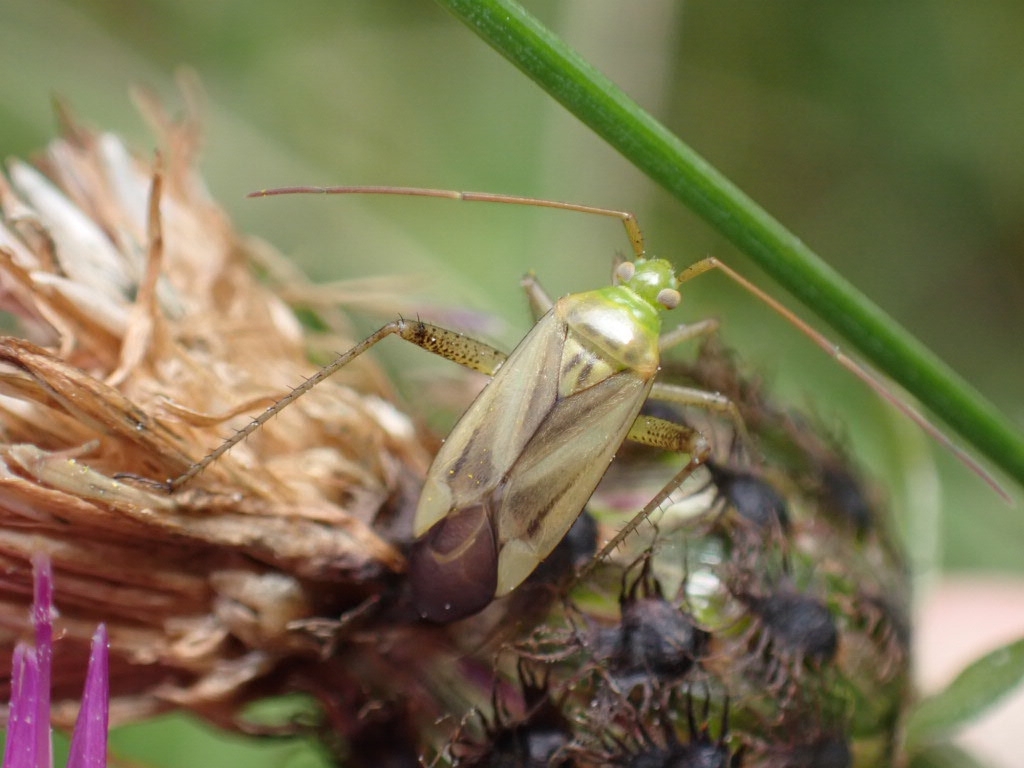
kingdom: Animalia
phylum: Arthropoda
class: Insecta
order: Hemiptera
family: Miridae
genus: Adelphocoris
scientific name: Adelphocoris lineolatus
